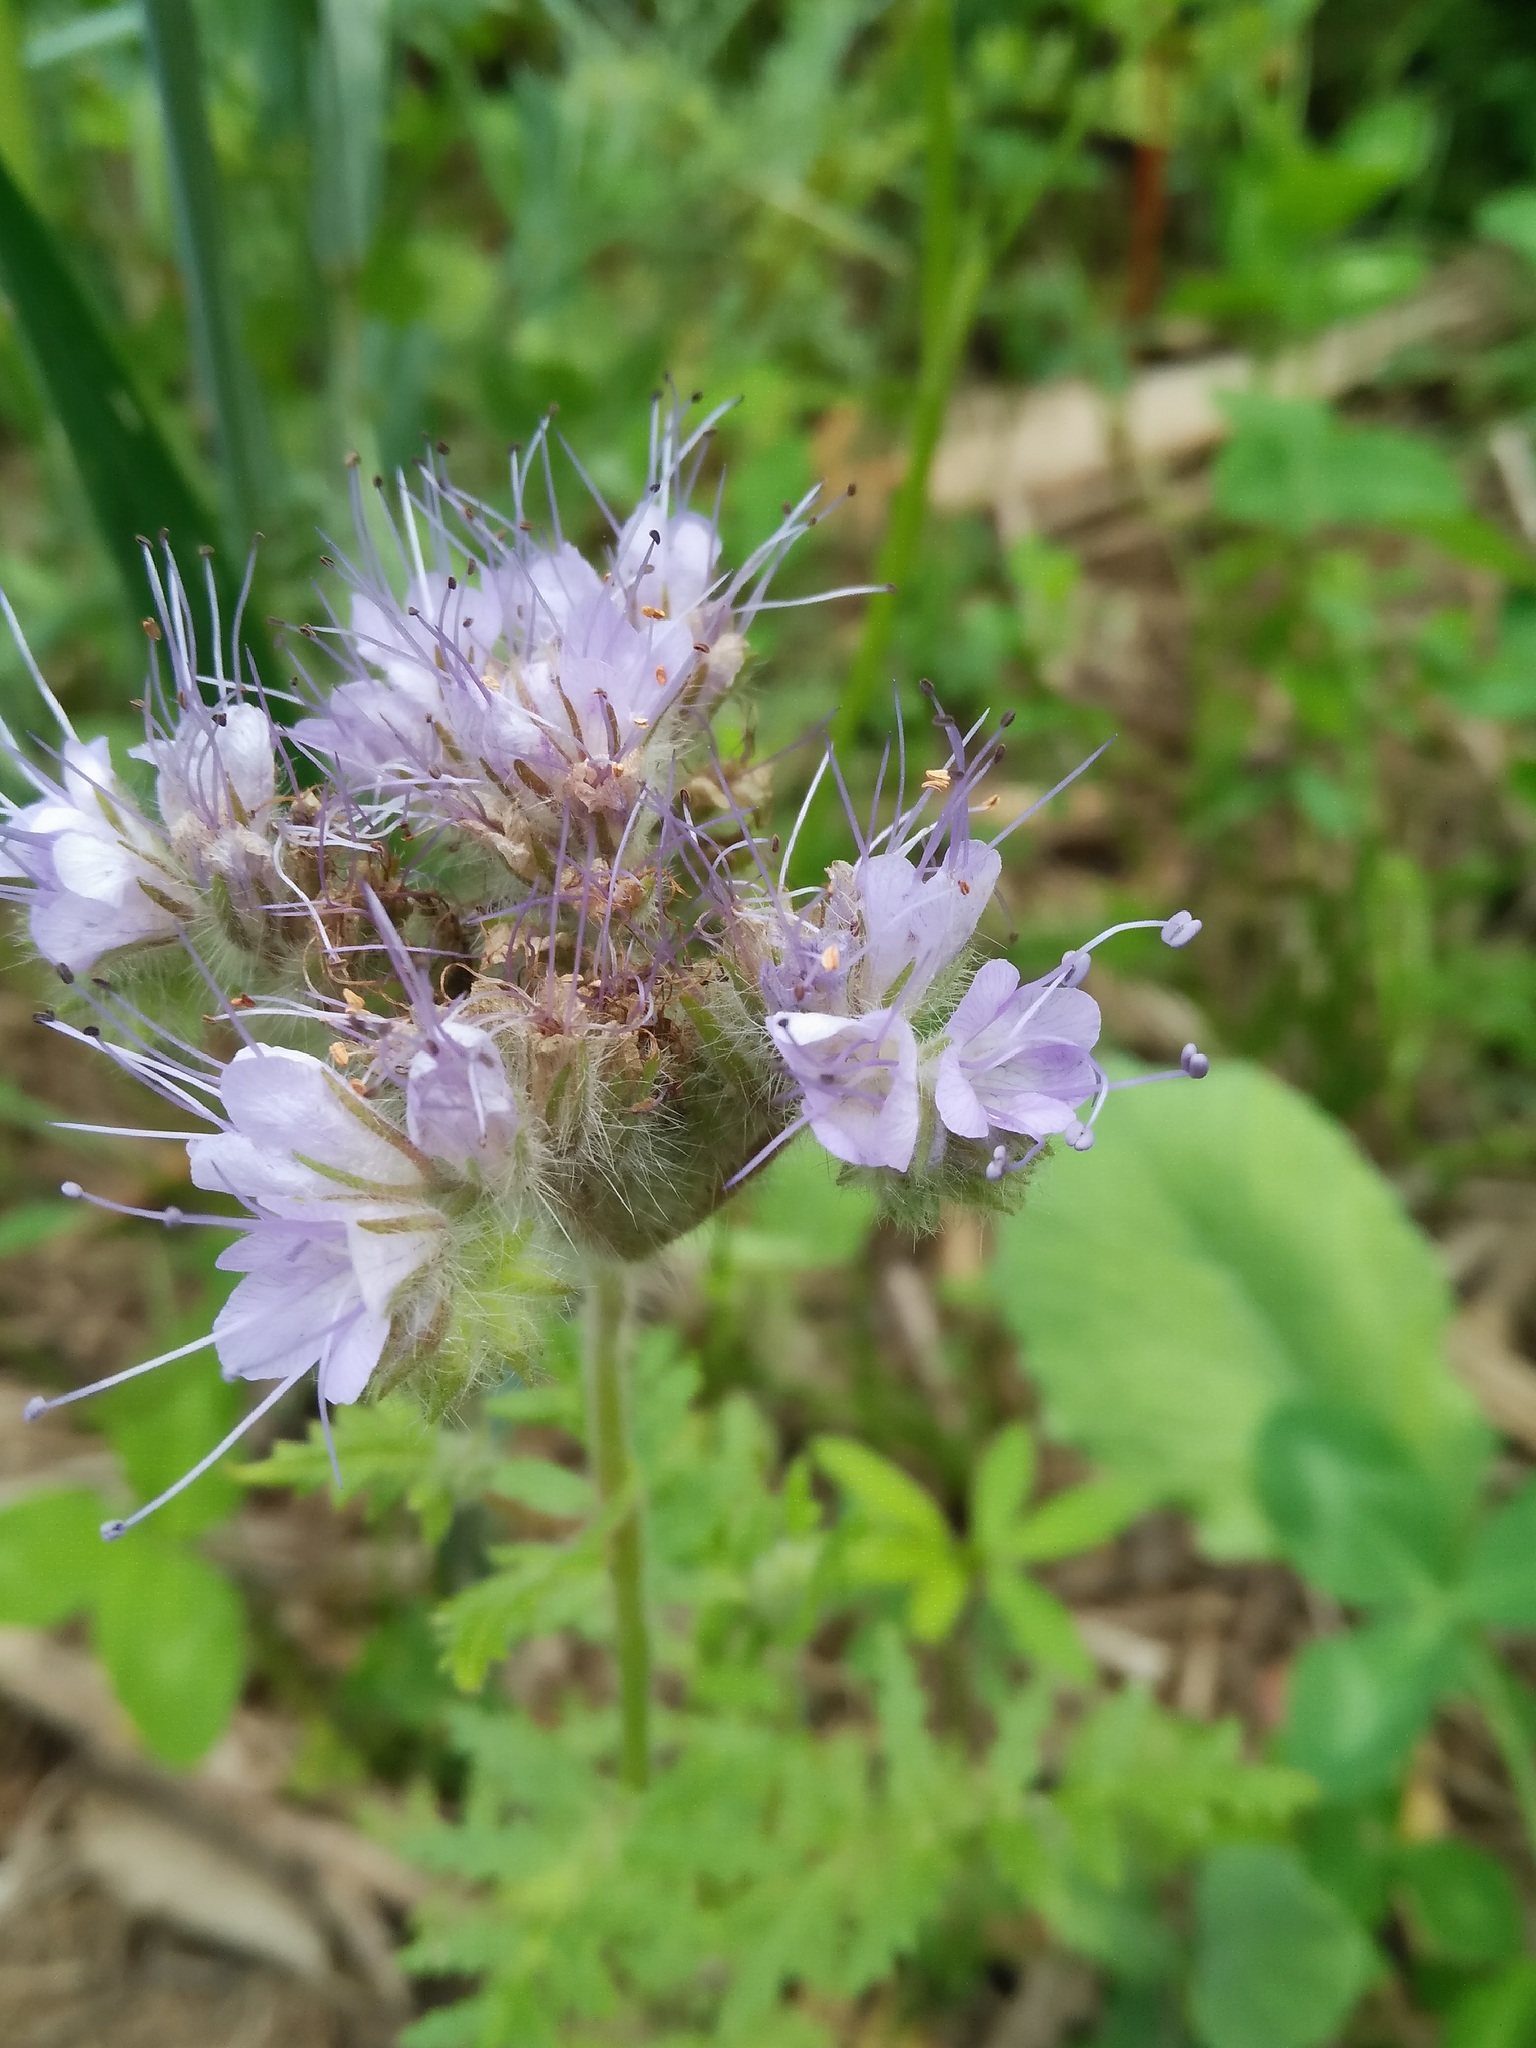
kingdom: Plantae
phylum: Tracheophyta
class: Magnoliopsida
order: Boraginales
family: Hydrophyllaceae
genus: Phacelia
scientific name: Phacelia tanacetifolia
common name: Phacelia
